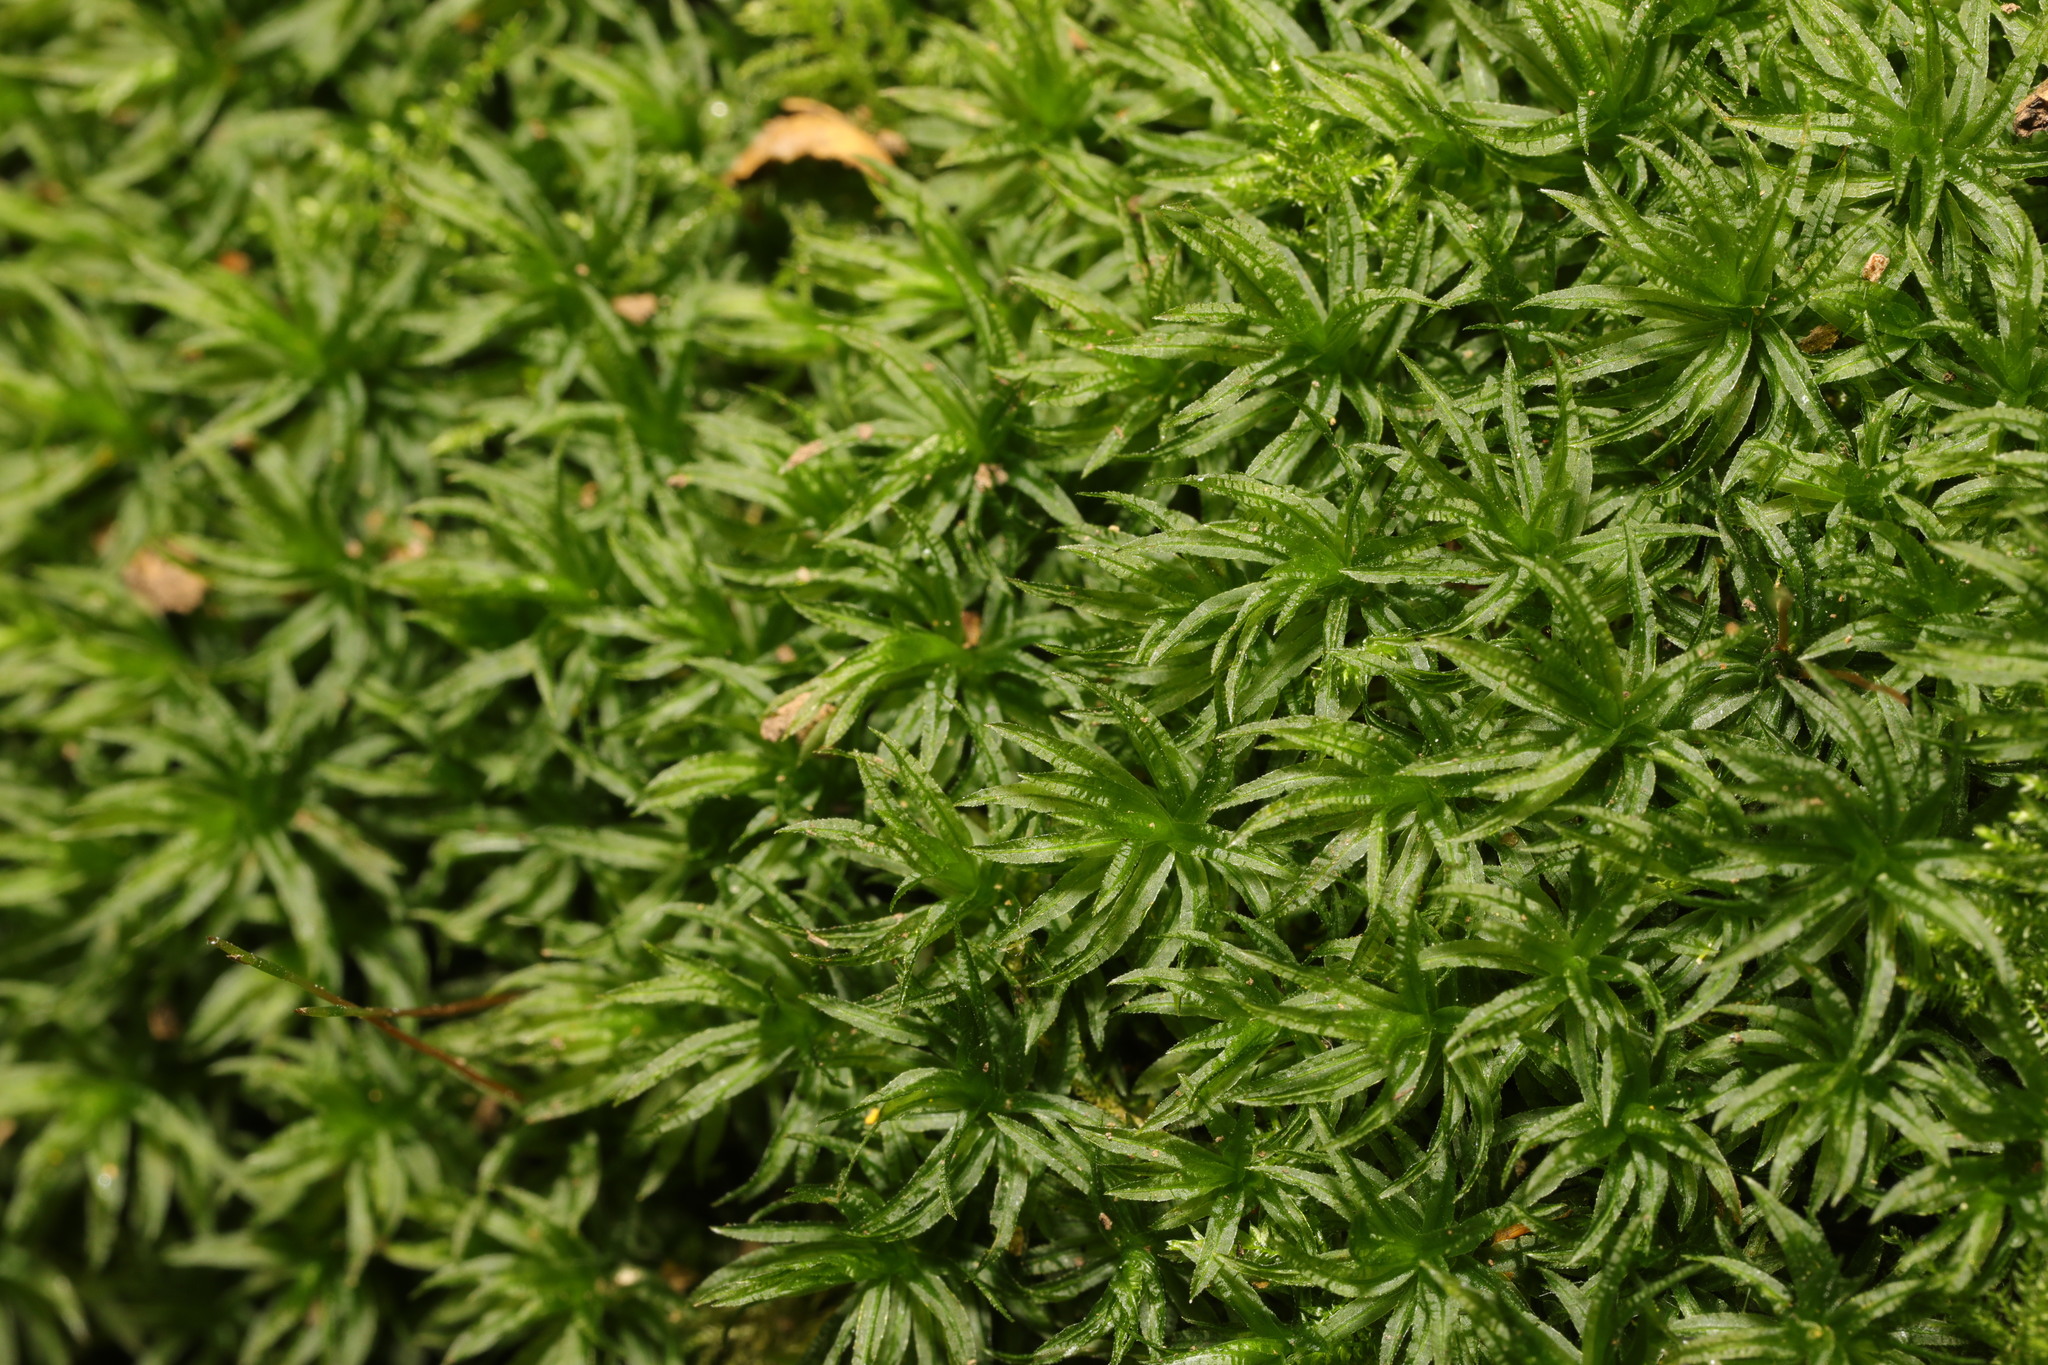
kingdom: Plantae
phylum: Bryophyta
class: Polytrichopsida
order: Polytrichales
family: Polytrichaceae
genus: Atrichum
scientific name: Atrichum undulatum
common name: Common smoothcap
